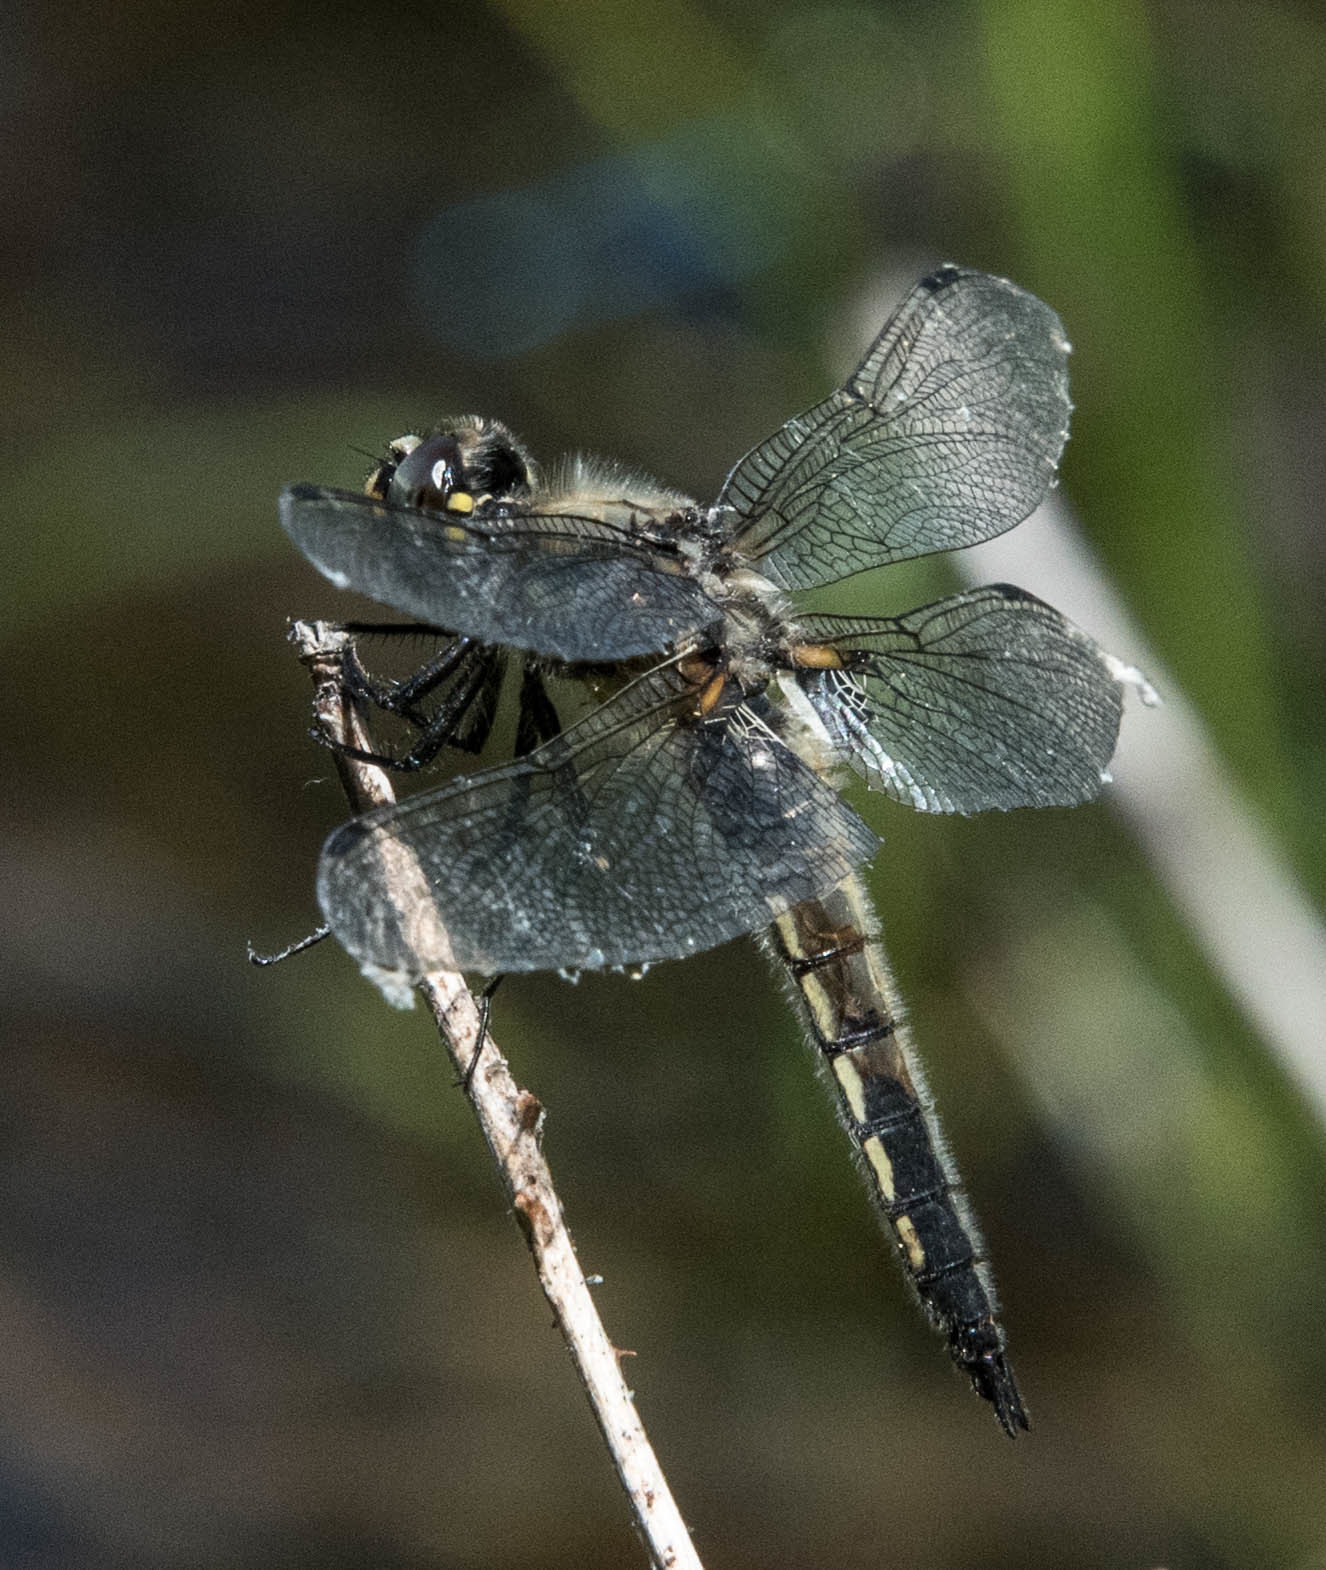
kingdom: Animalia
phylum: Arthropoda
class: Insecta
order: Odonata
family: Libellulidae
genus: Libellula
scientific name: Libellula quadrimaculata
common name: Four-spotted chaser
